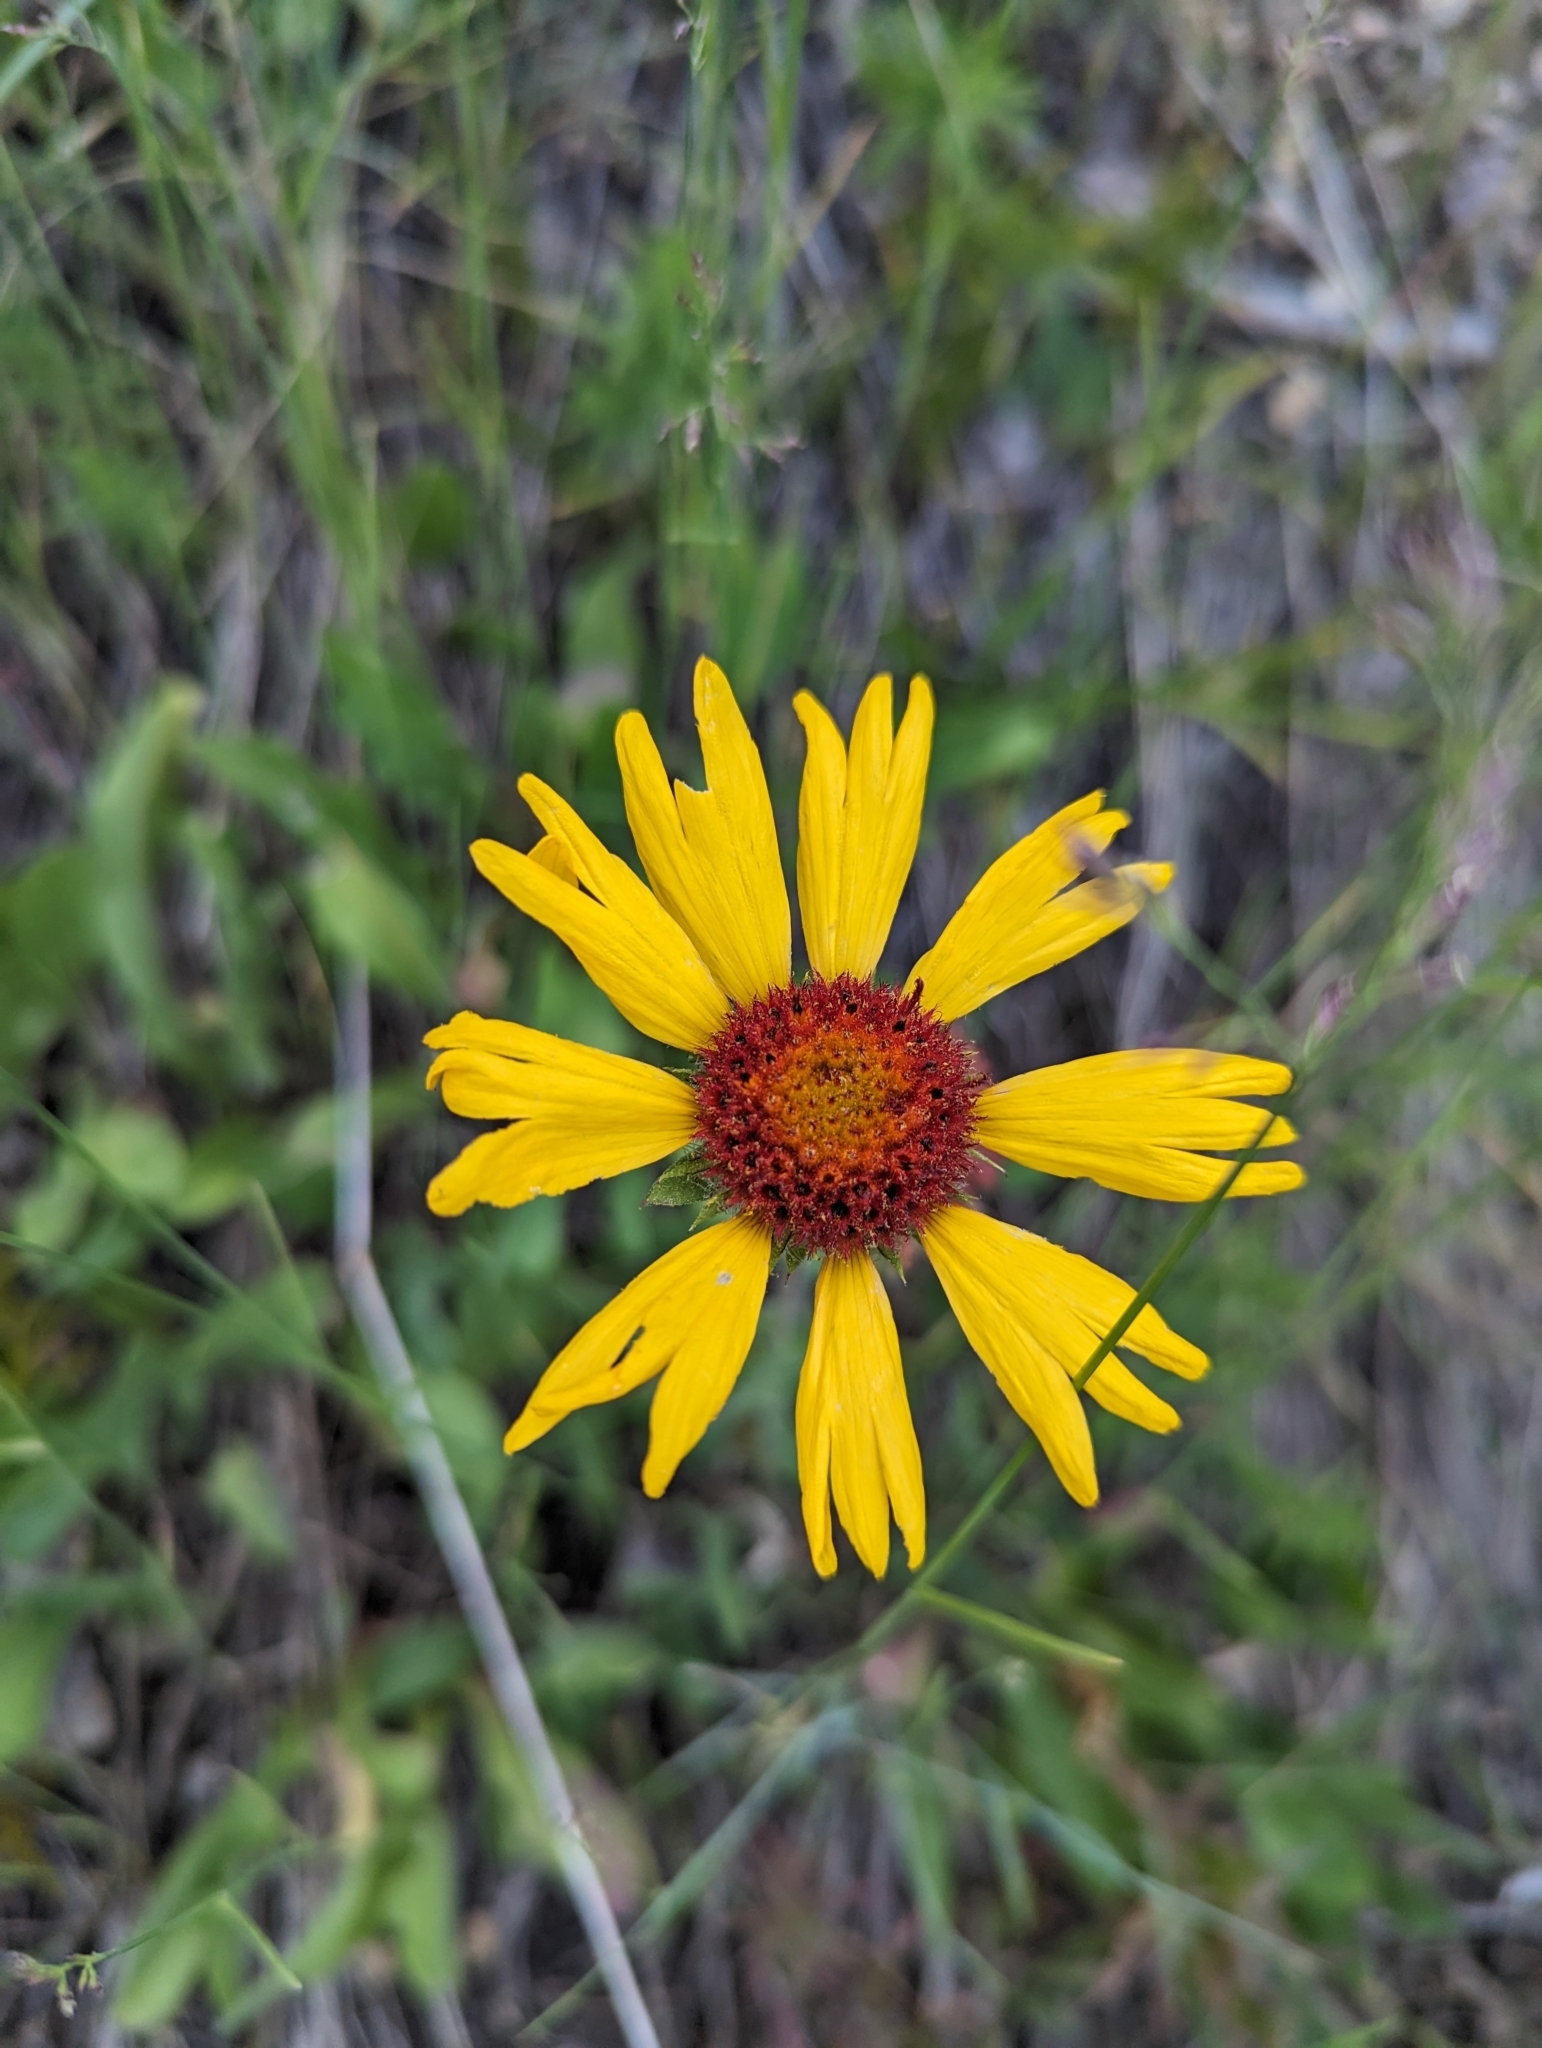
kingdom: Plantae
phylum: Tracheophyta
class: Magnoliopsida
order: Asterales
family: Asteraceae
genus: Gaillardia
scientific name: Gaillardia aristata
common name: Blanket-flower
